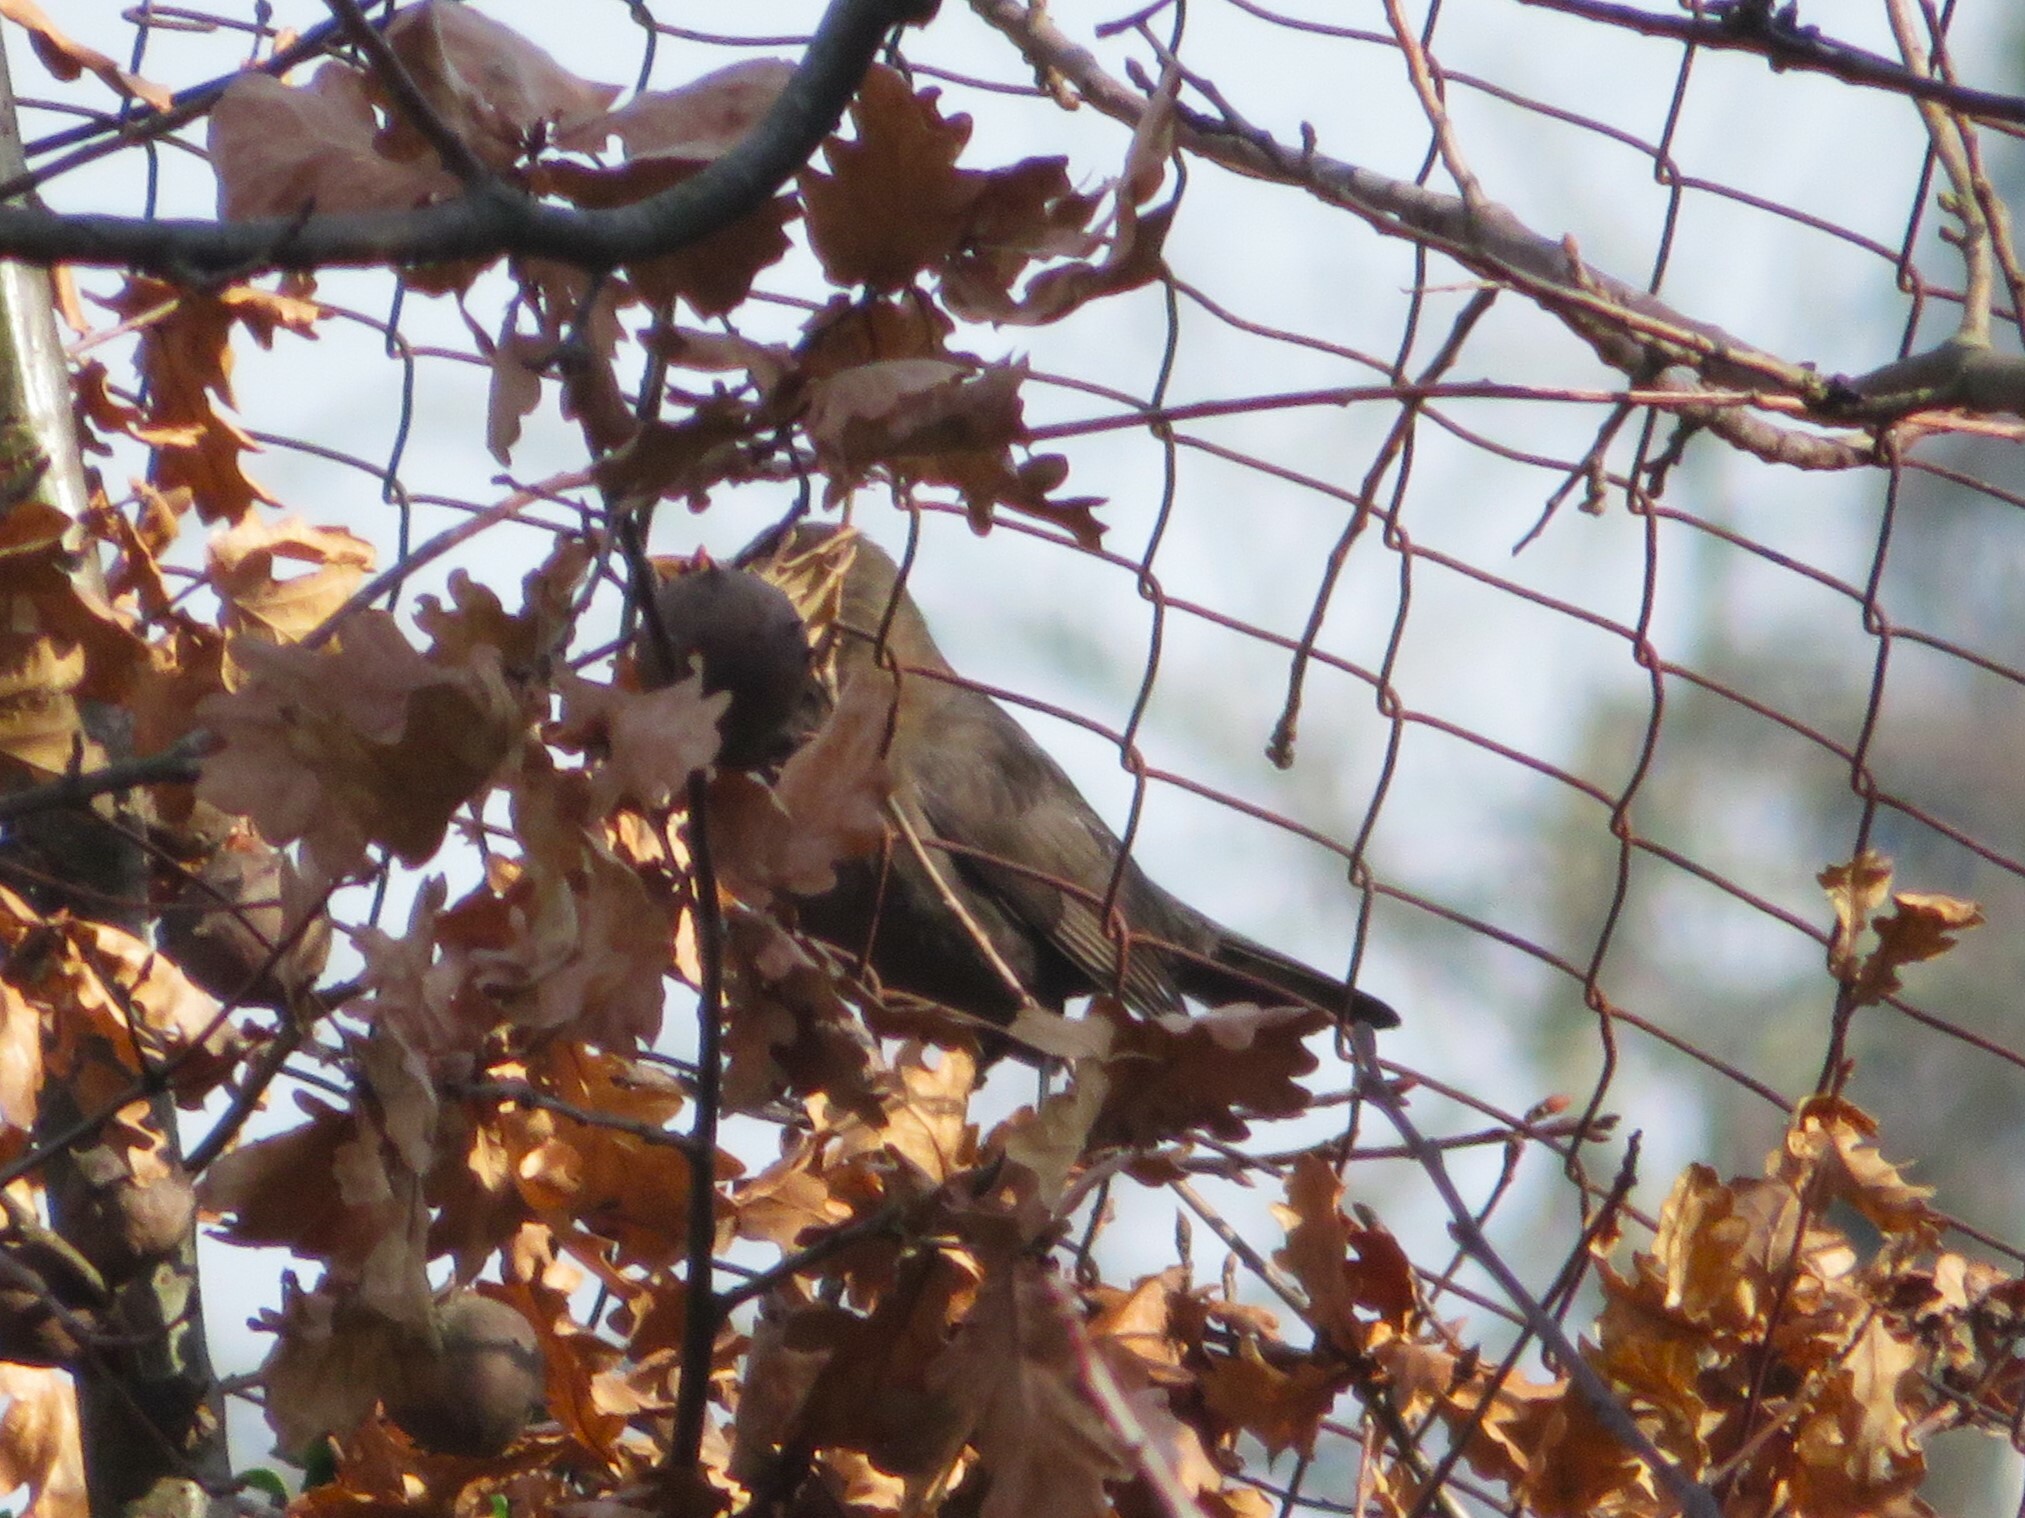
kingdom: Animalia
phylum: Chordata
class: Aves
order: Passeriformes
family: Turdidae
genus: Turdus
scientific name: Turdus merula
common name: Common blackbird
